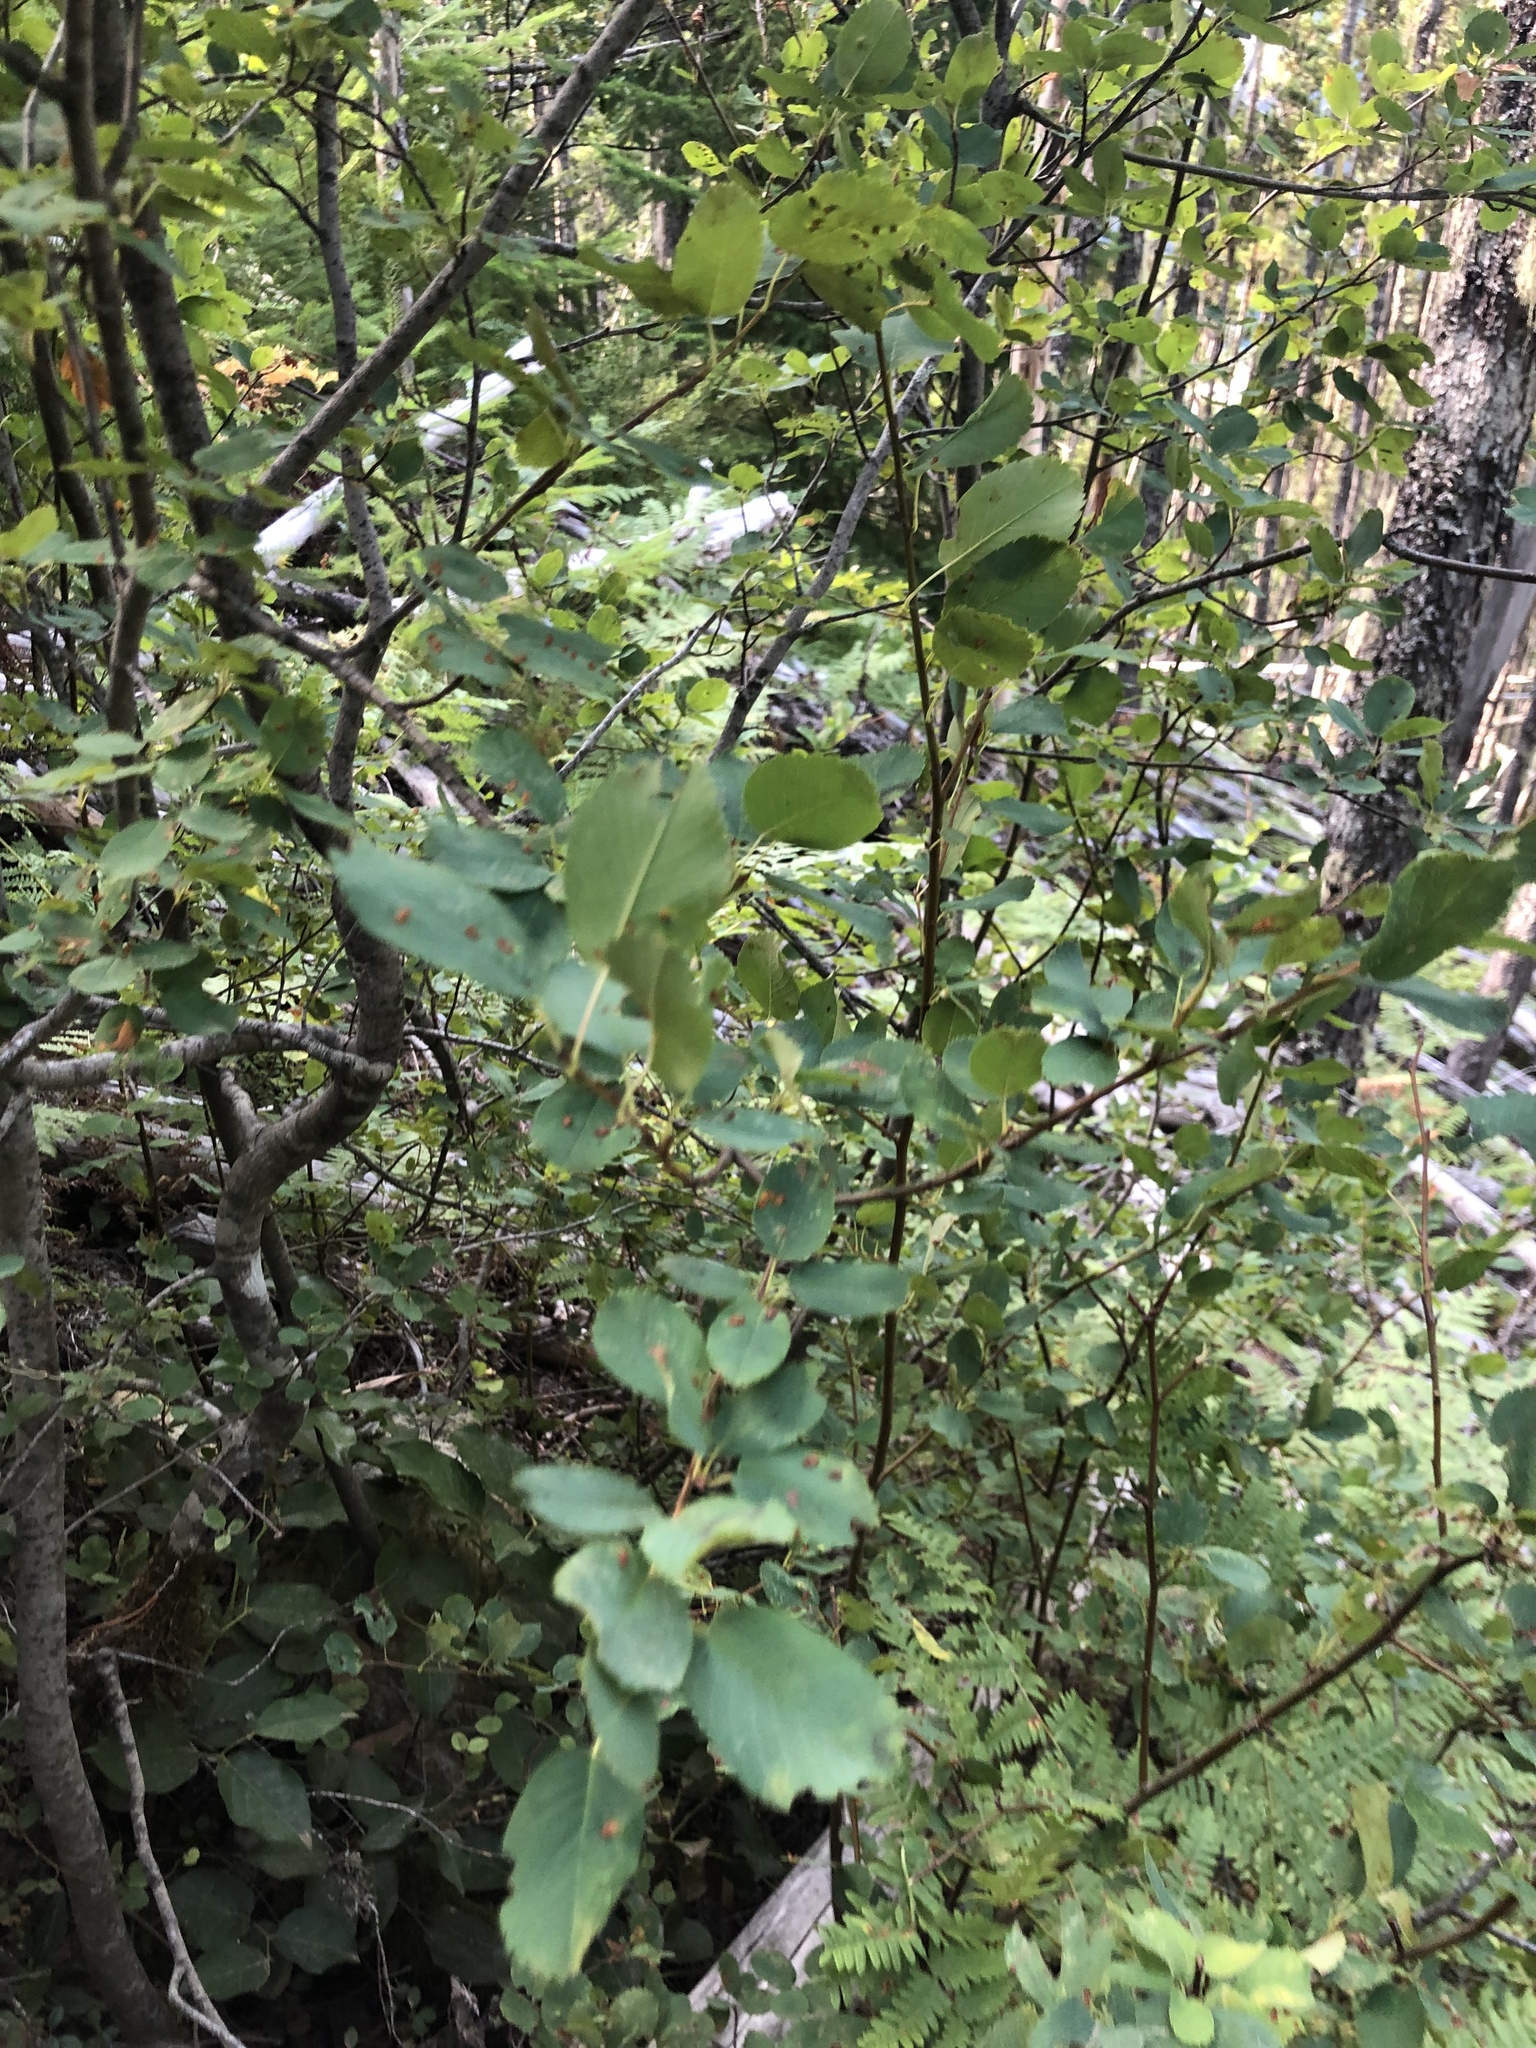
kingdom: Plantae
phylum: Tracheophyta
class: Magnoliopsida
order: Rosales
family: Rosaceae
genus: Amelanchier
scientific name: Amelanchier alnifolia
